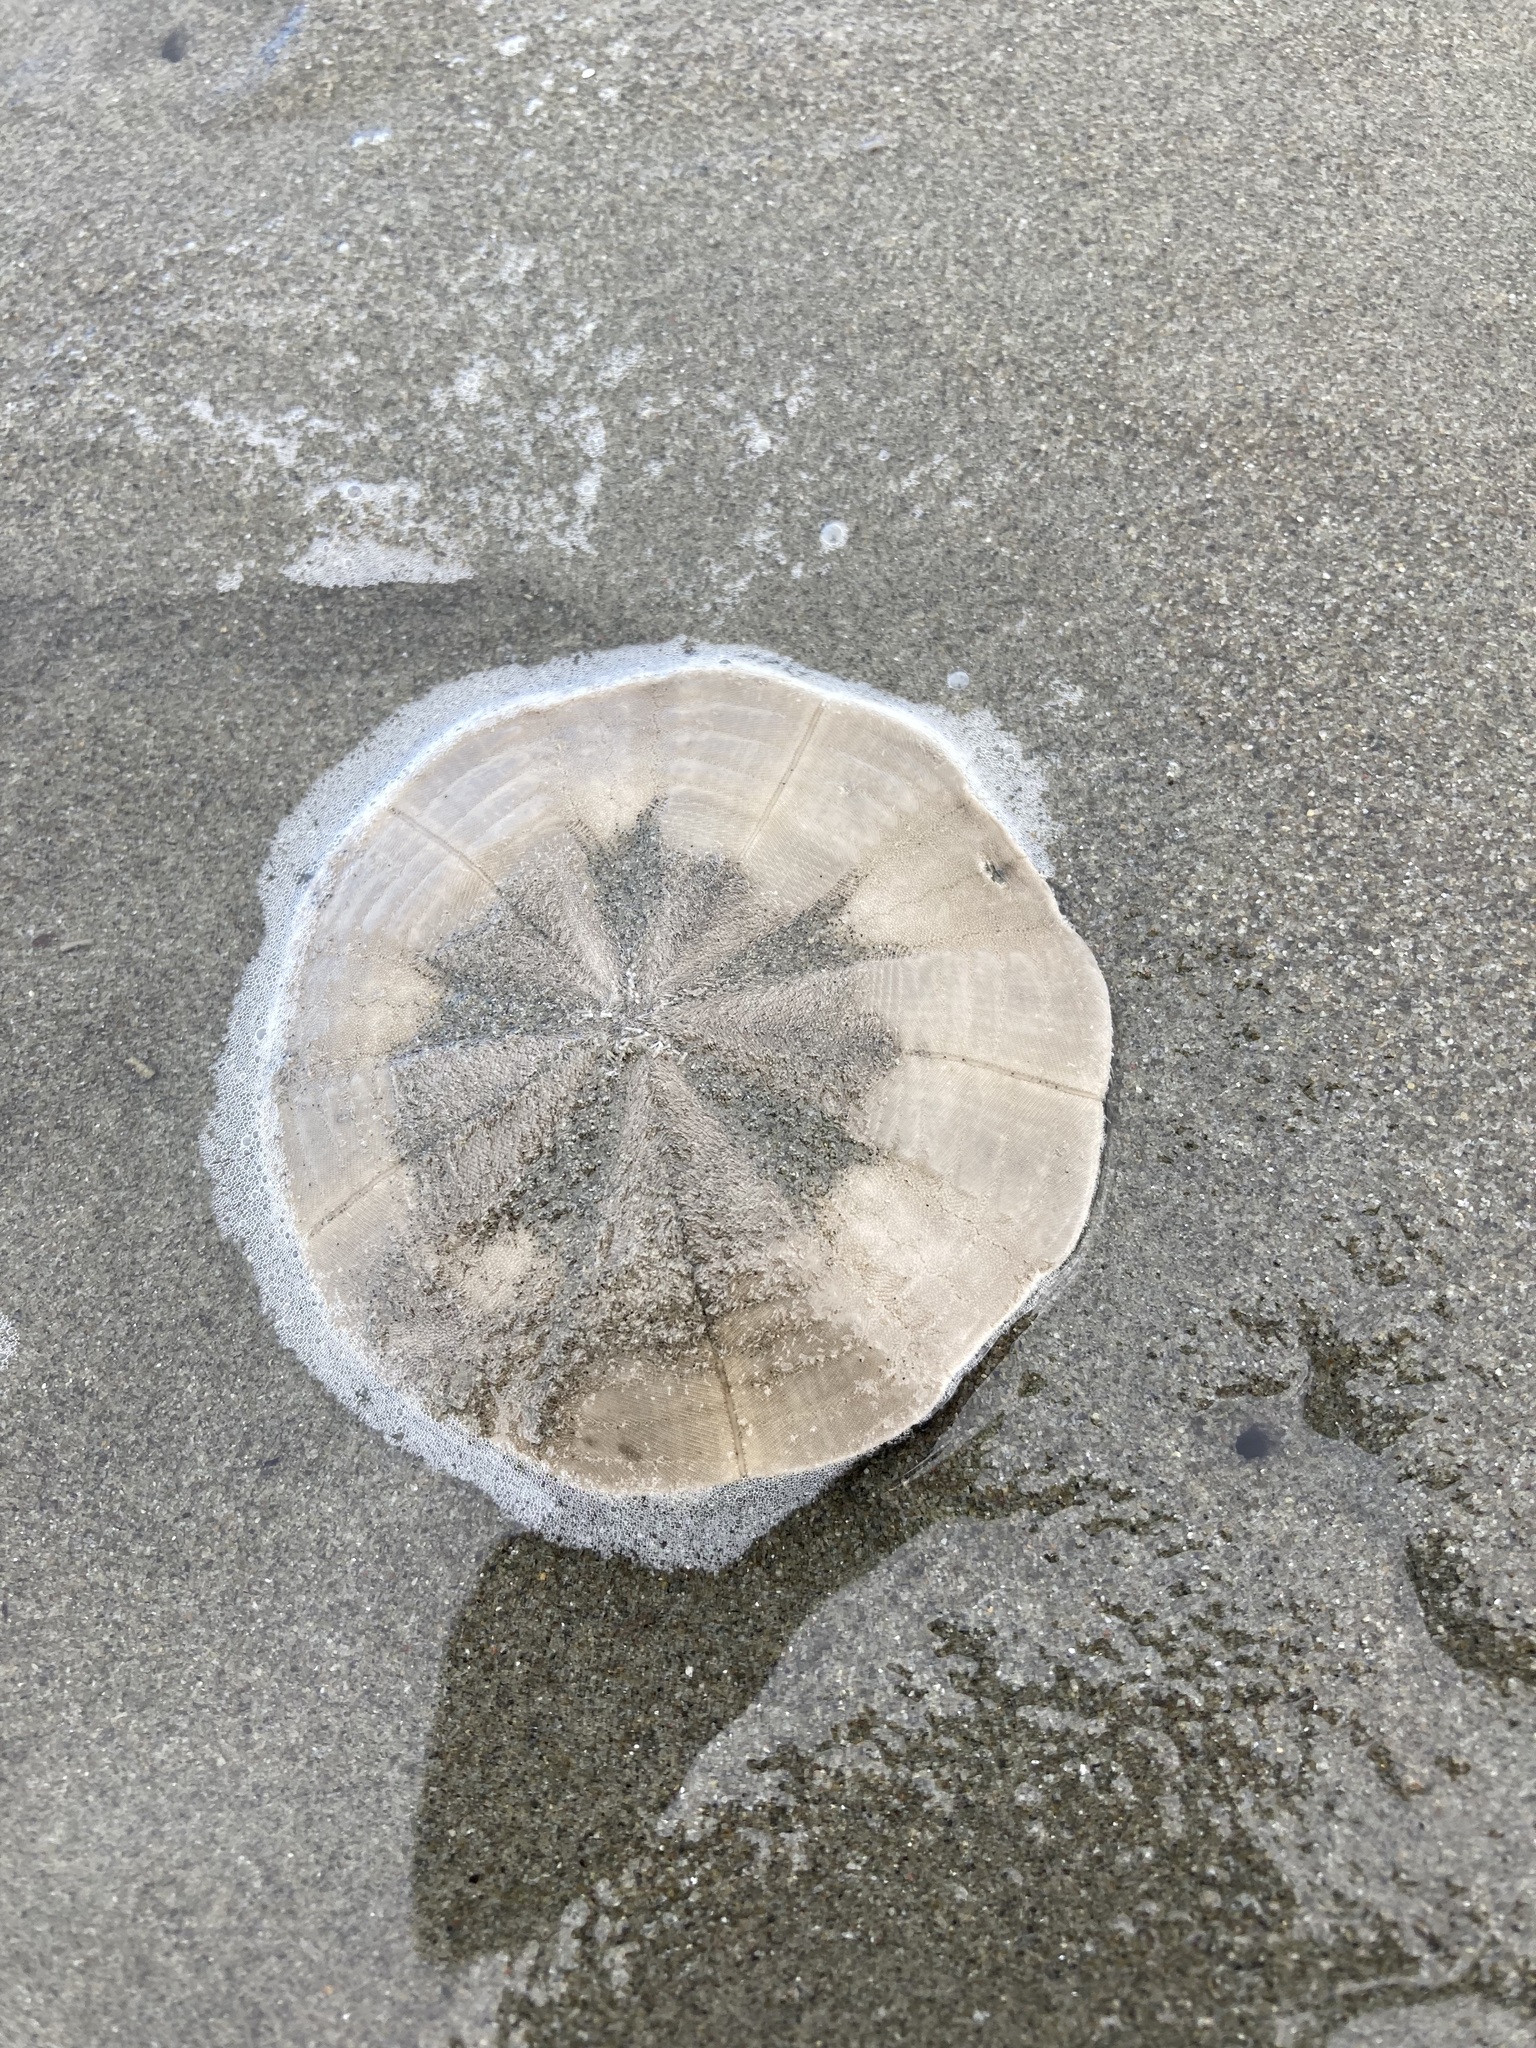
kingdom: Animalia
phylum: Echinodermata
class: Echinoidea
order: Clypeasteroida
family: Clypeasteridae
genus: Fellaster
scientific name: Fellaster zelandiae
